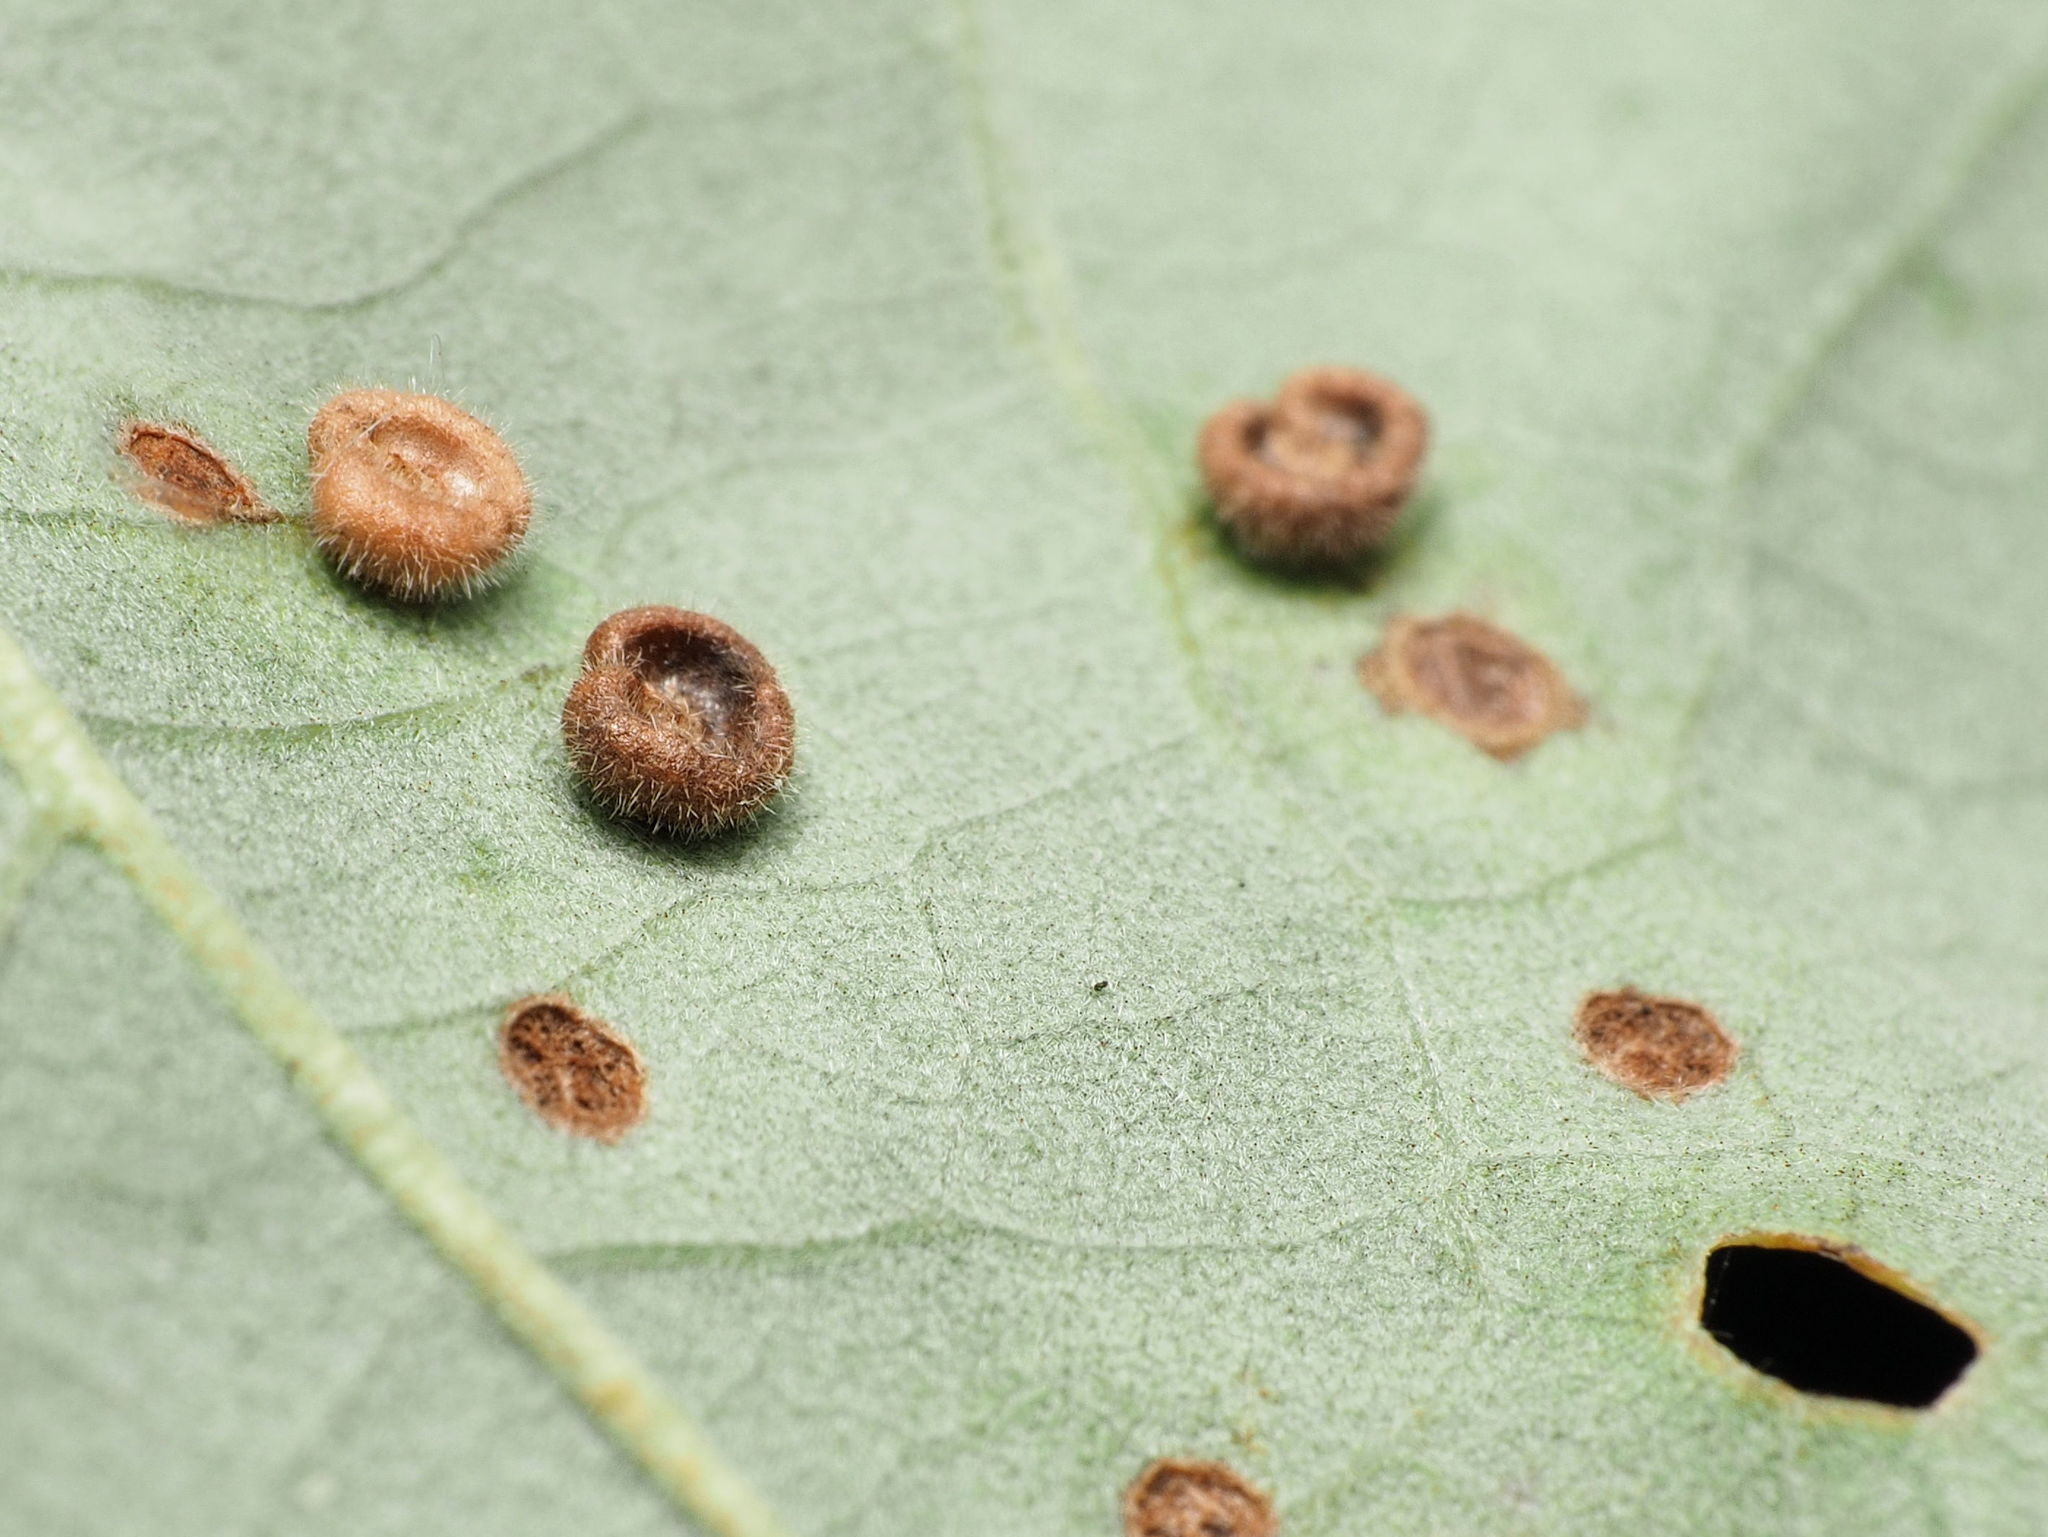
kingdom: Animalia
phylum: Arthropoda
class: Insecta
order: Hymenoptera
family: Cynipidae
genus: Neuroterus
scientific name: Neuroterus
